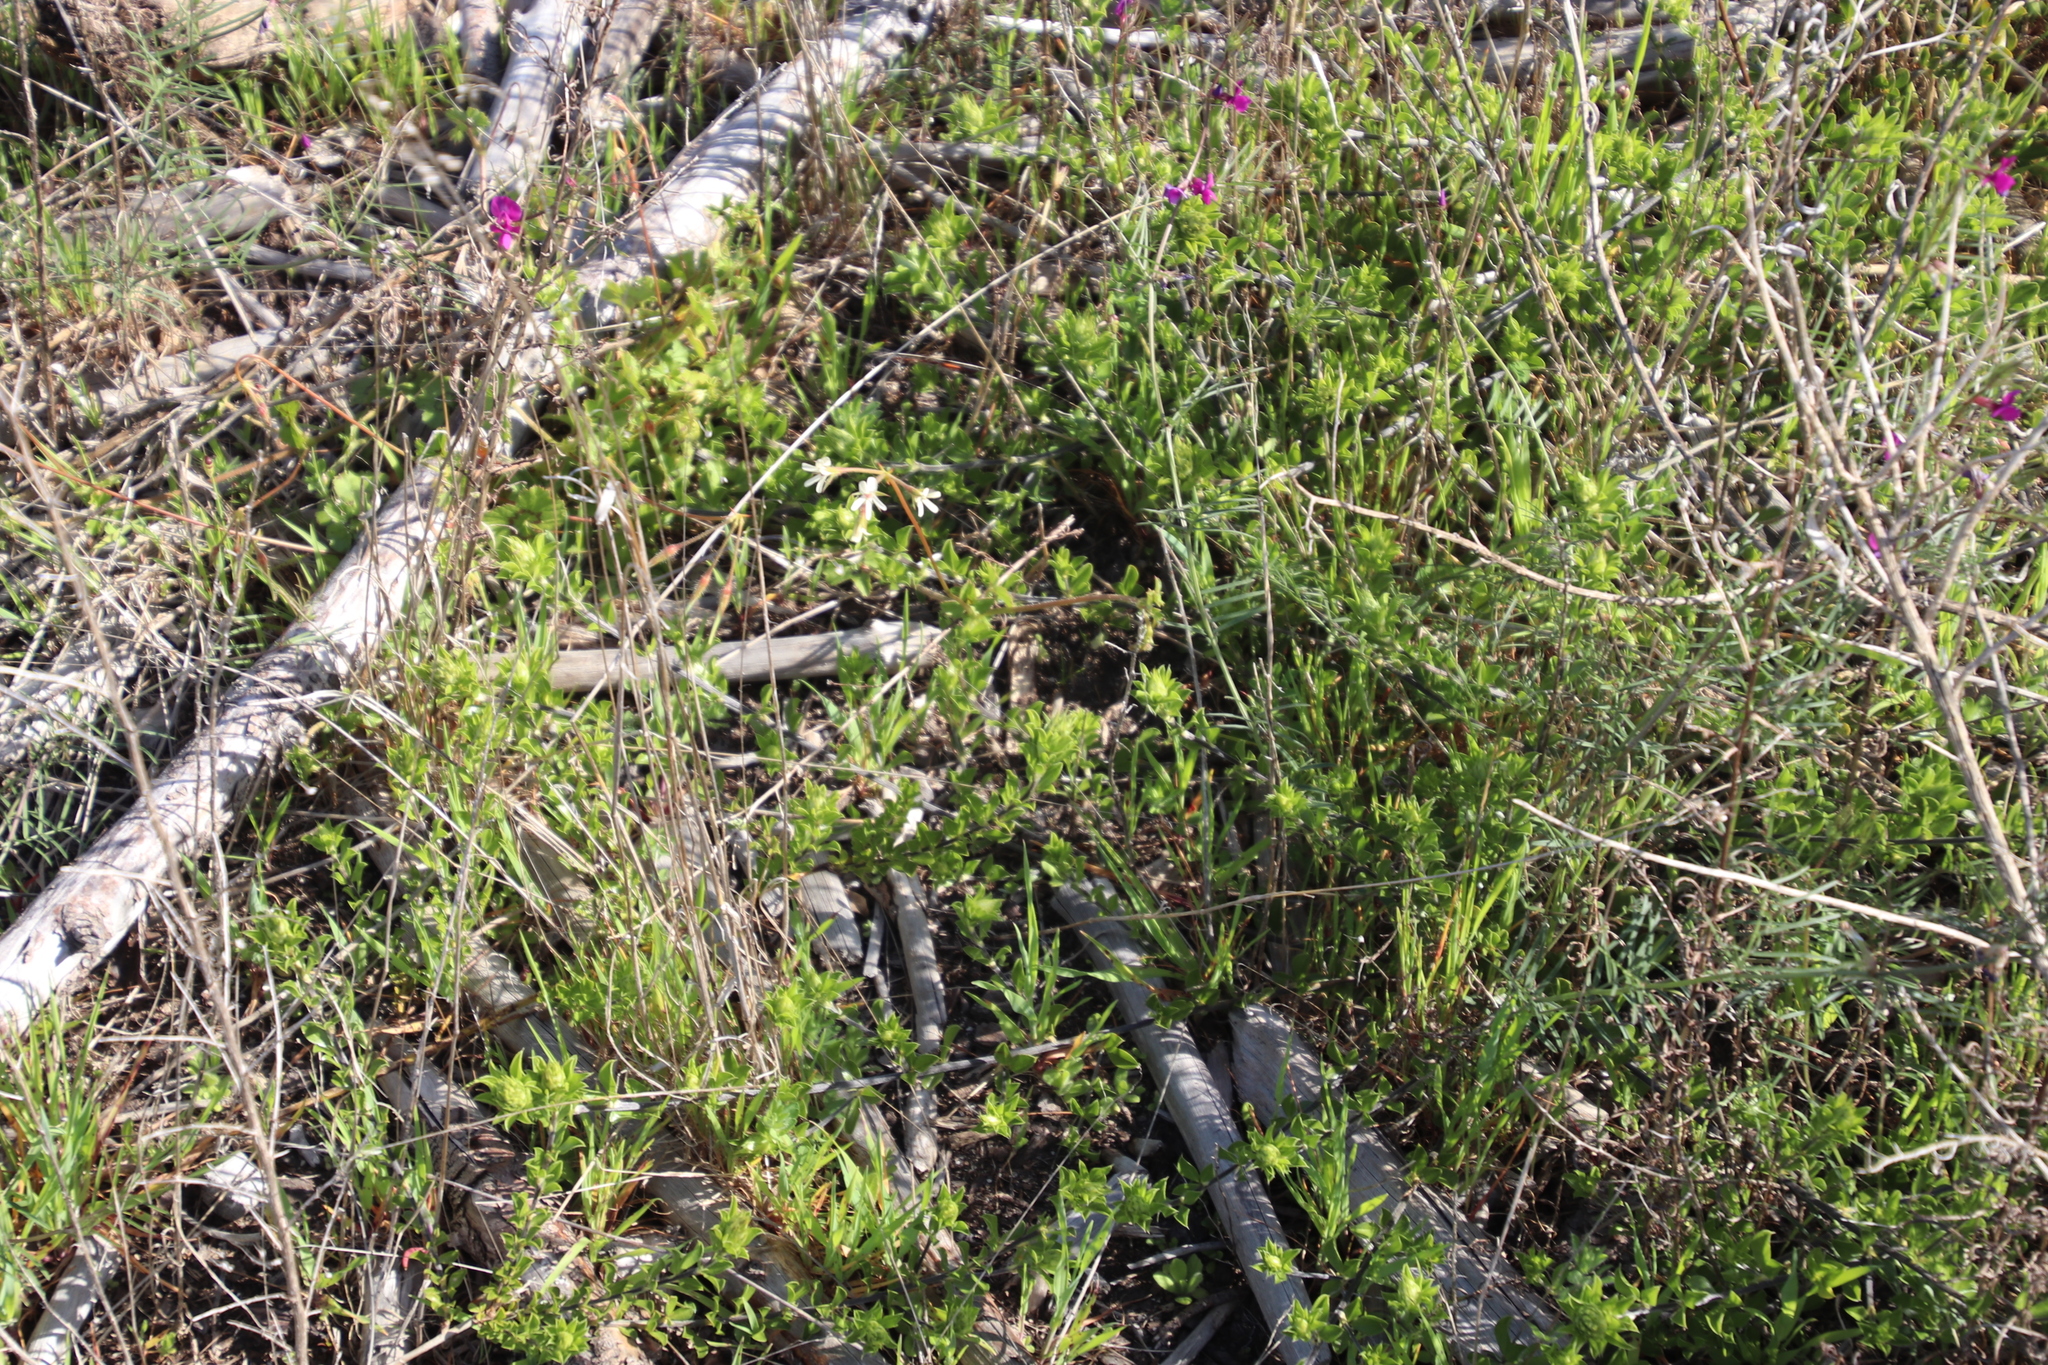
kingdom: Plantae
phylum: Tracheophyta
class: Magnoliopsida
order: Geraniales
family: Geraniaceae
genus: Pelargonium
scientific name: Pelargonium elongatum
